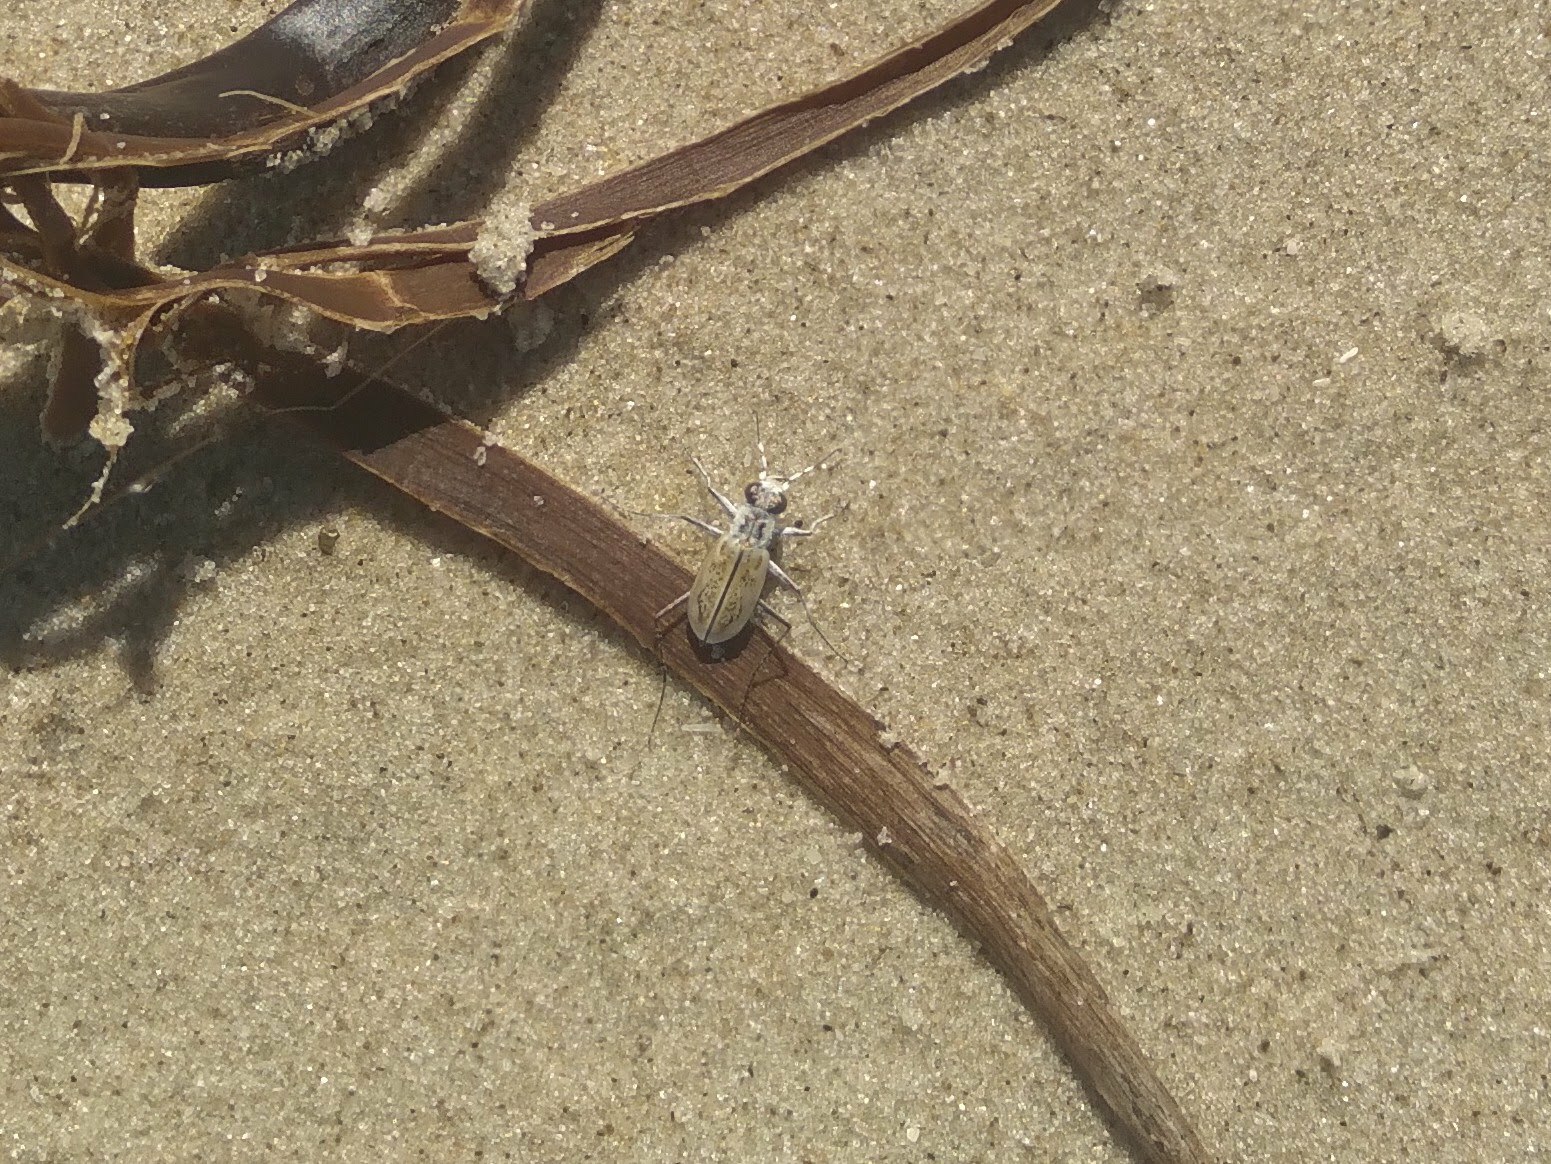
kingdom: Animalia
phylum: Arthropoda
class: Insecta
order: Coleoptera
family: Carabidae
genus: Cylindera
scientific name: Cylindera nivea
